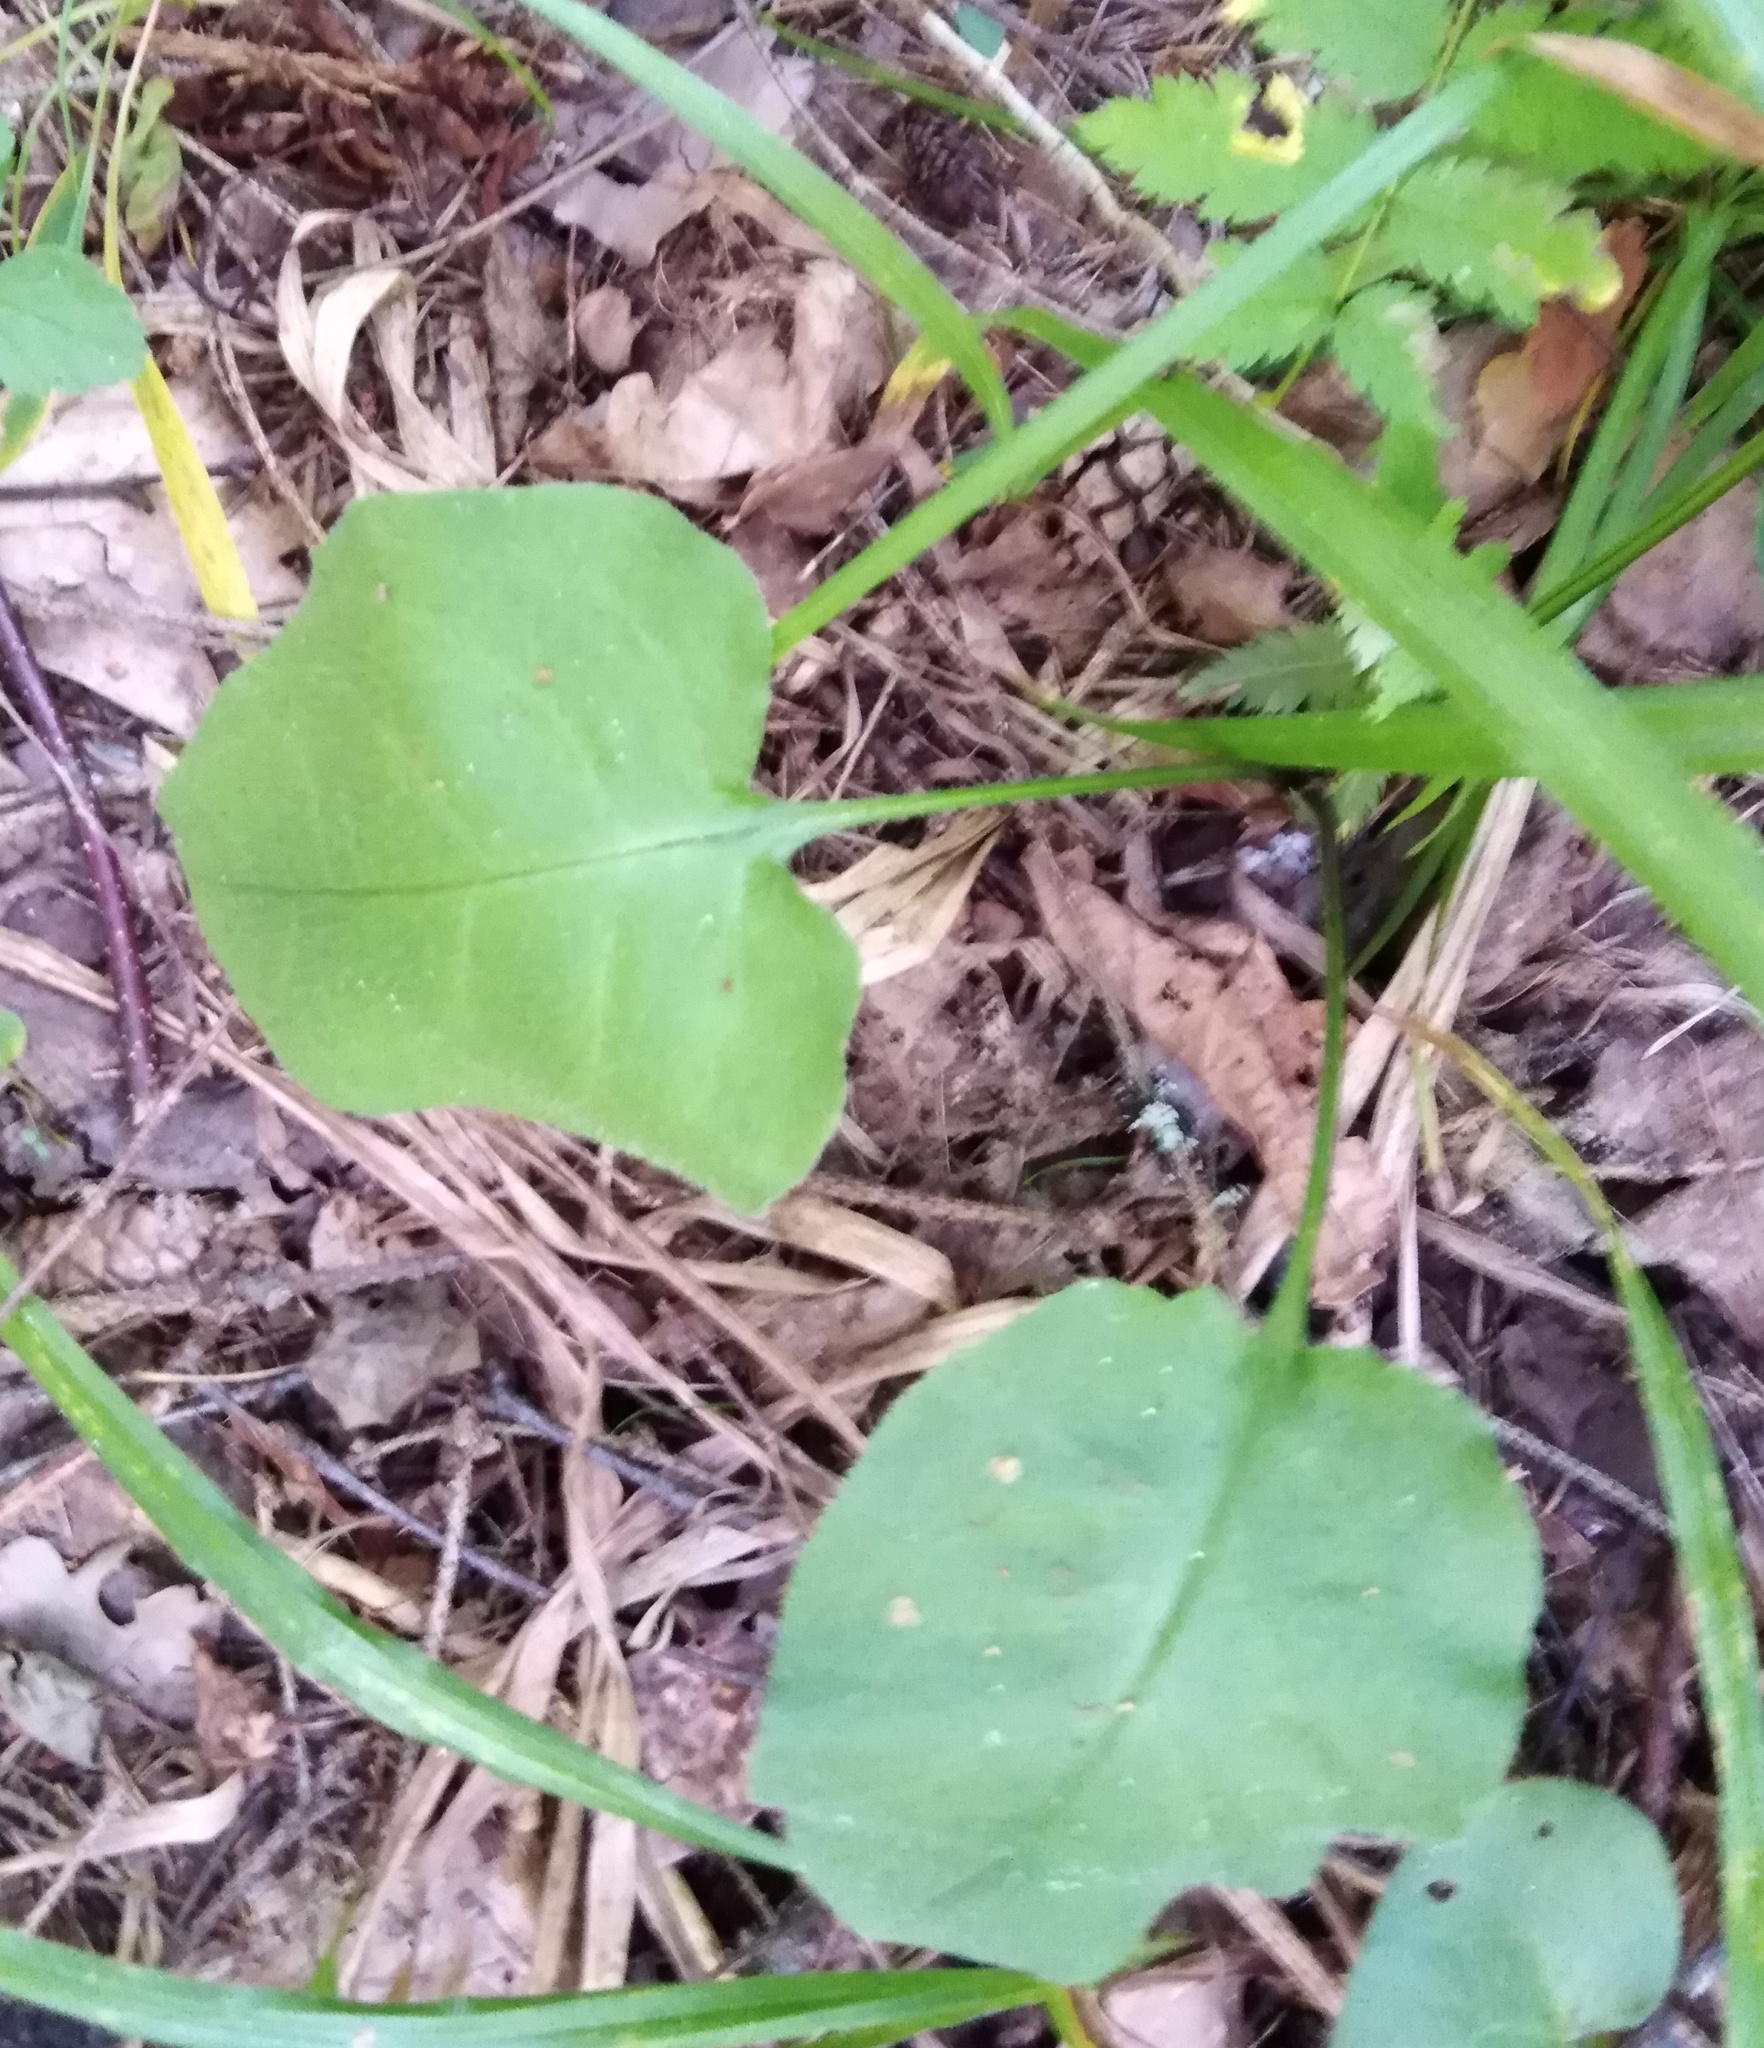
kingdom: Plantae
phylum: Tracheophyta
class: Magnoliopsida
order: Boraginales
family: Boraginaceae
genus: Pulmonaria
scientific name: Pulmonaria obscura
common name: Suffolk lungwort
